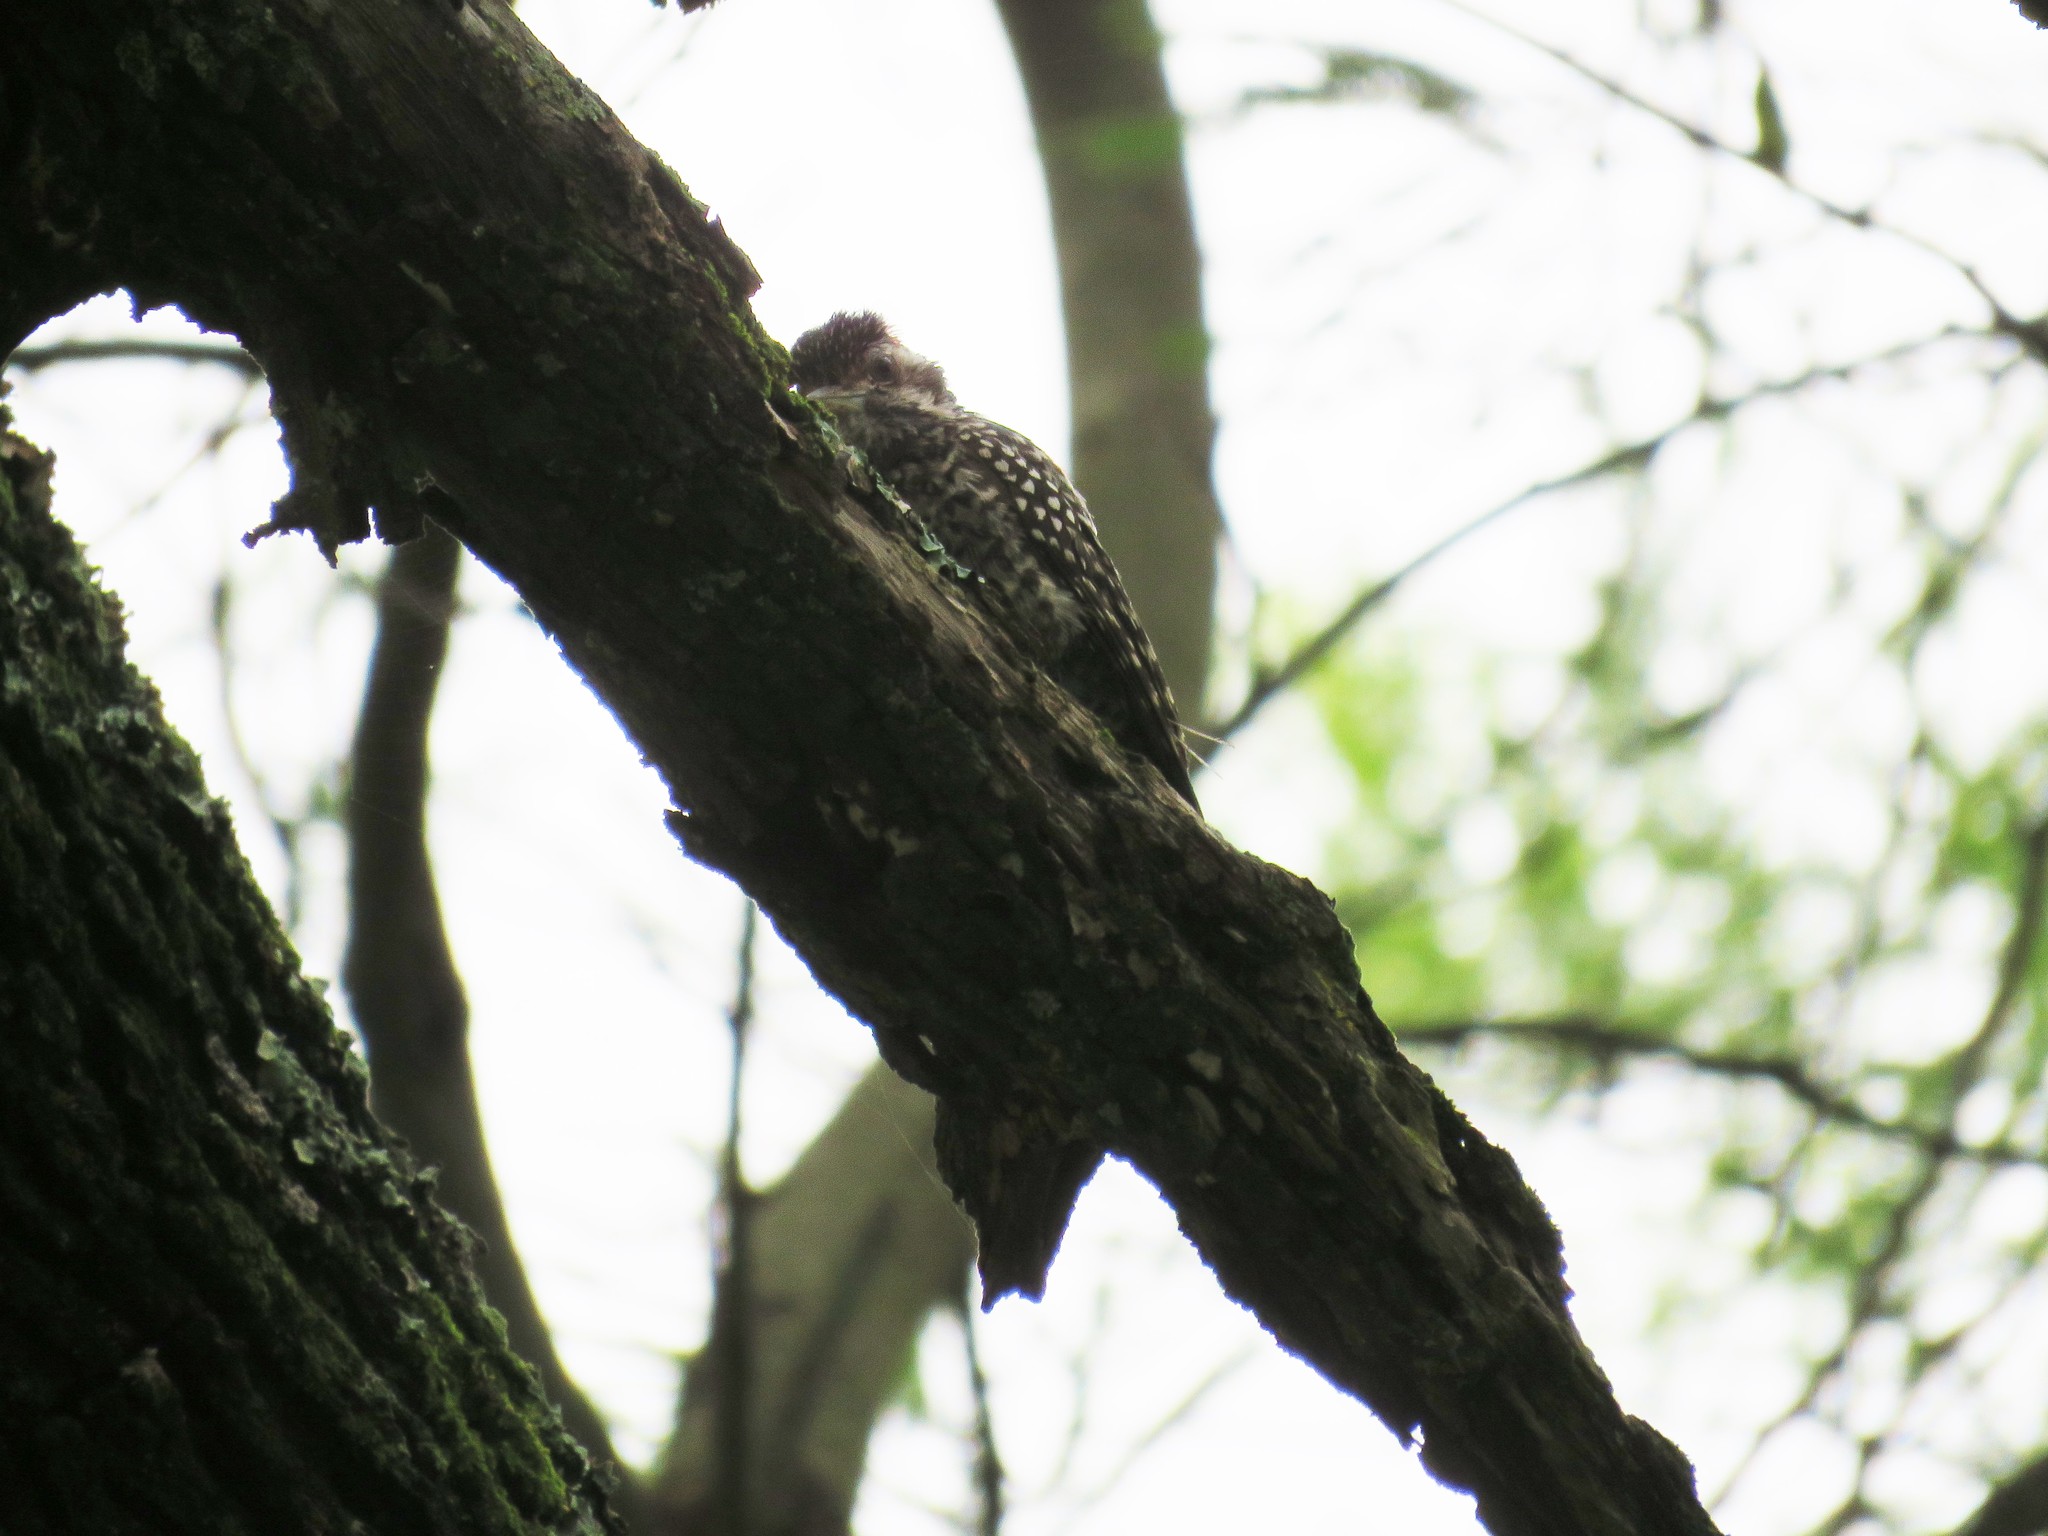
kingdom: Animalia
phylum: Chordata
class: Aves
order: Piciformes
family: Picidae
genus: Veniliornis
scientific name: Veniliornis mixtus
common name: Checkered woodpecker
